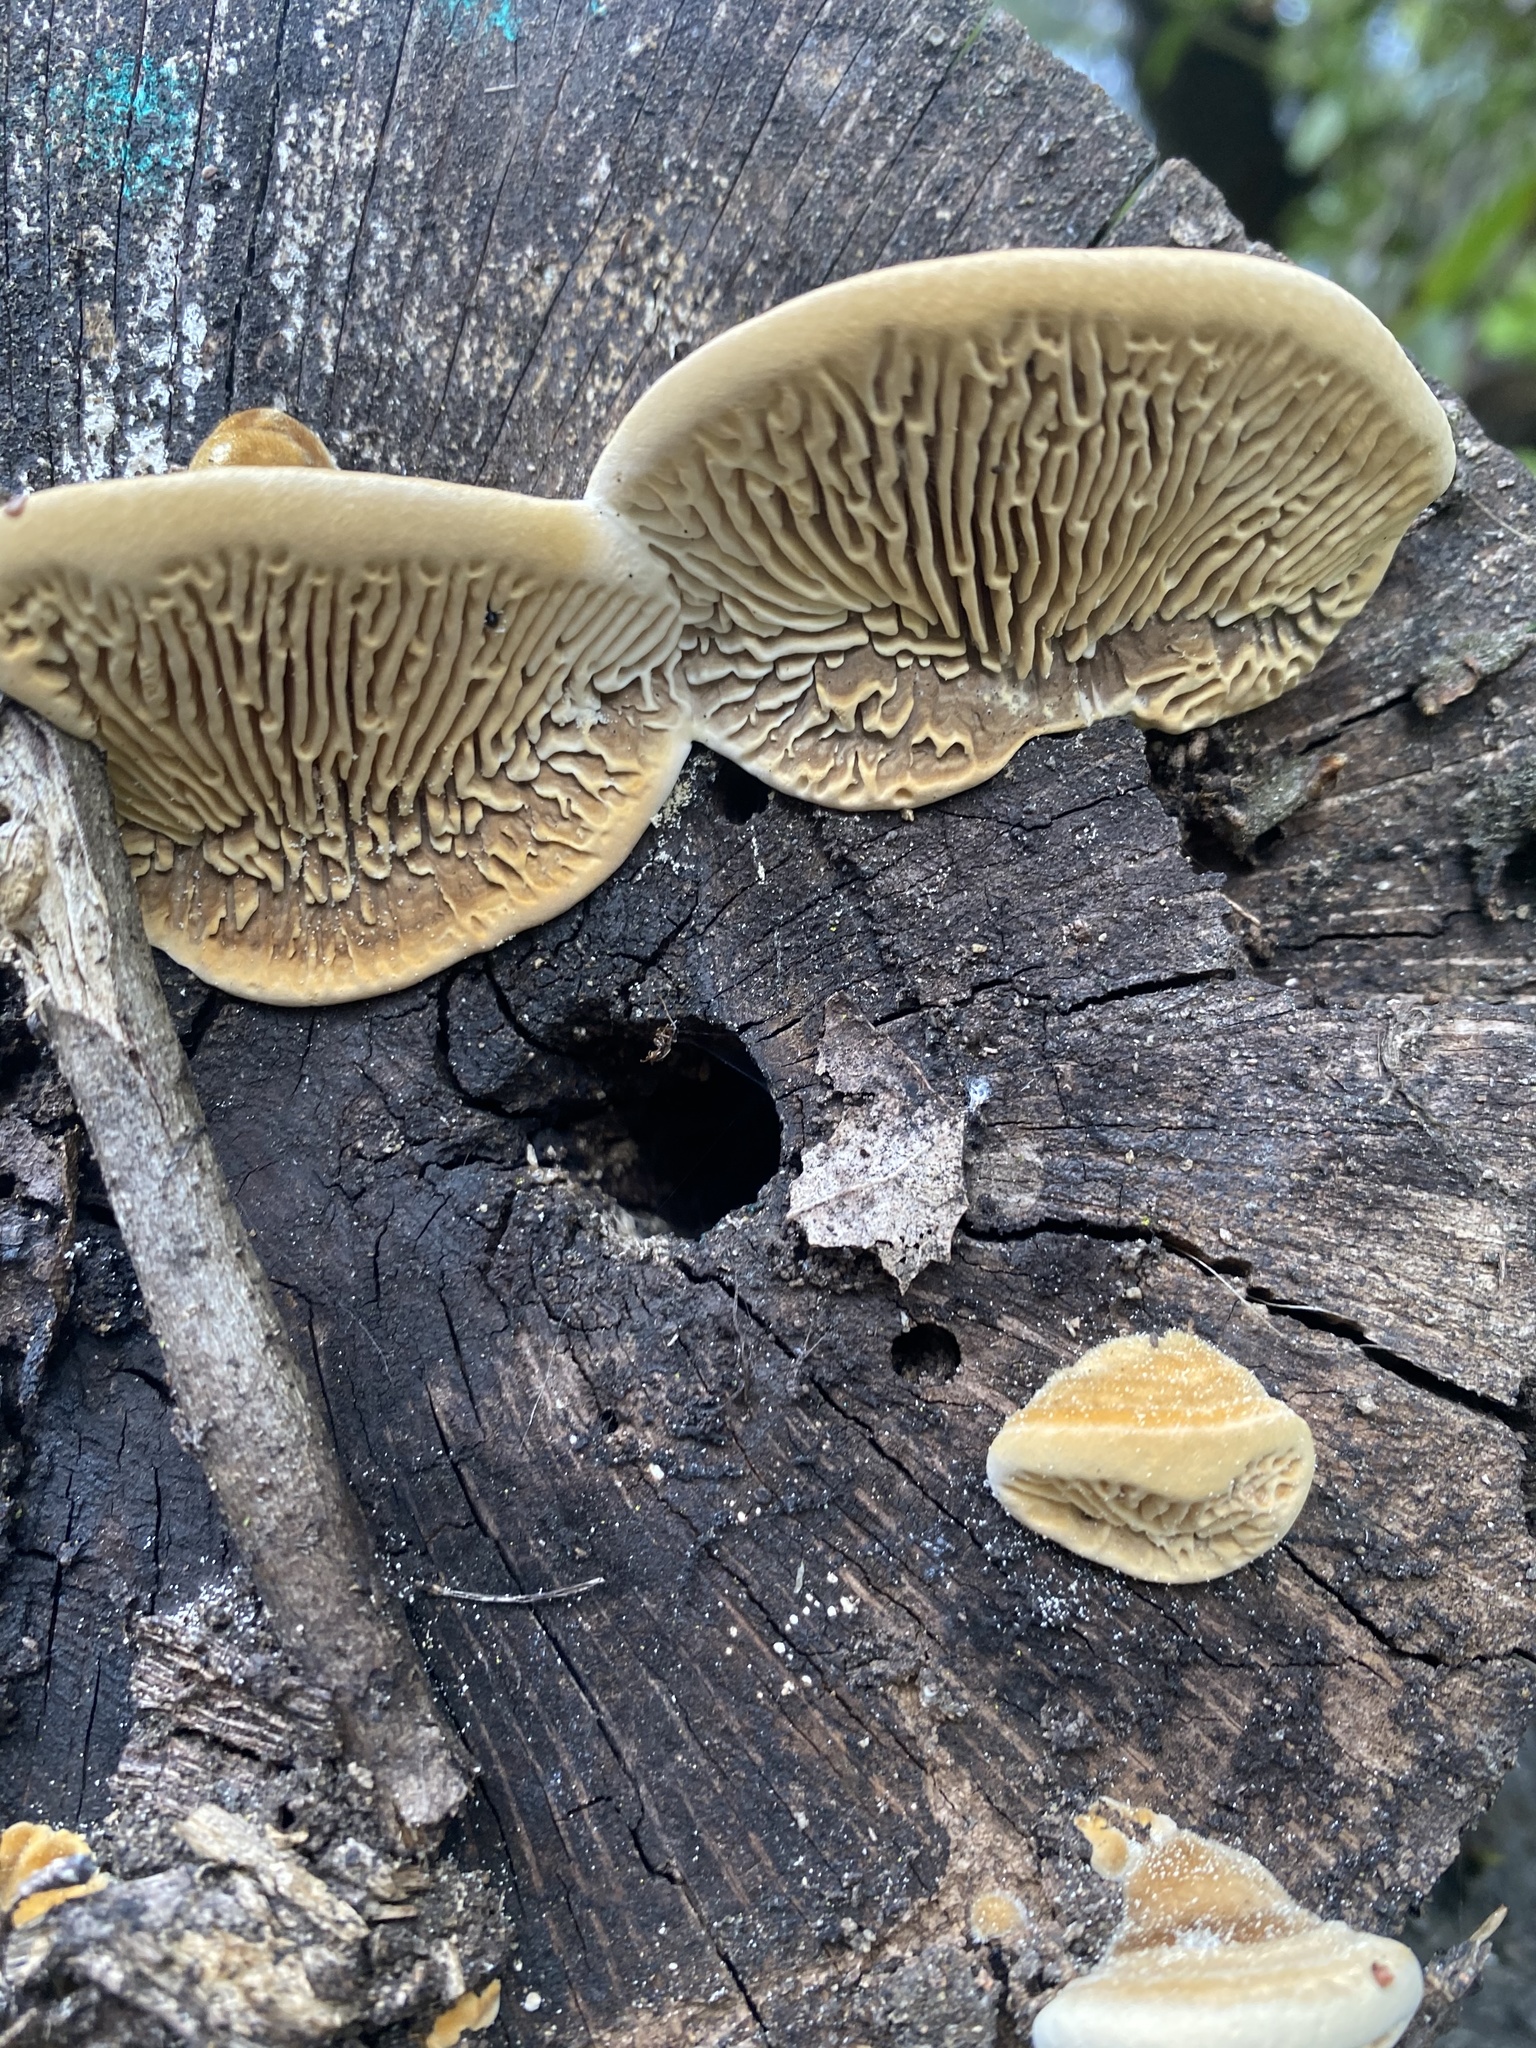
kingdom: Fungi
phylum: Basidiomycota
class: Agaricomycetes
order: Polyporales
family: Fomitopsidaceae
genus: Fomitopsis
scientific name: Fomitopsis
